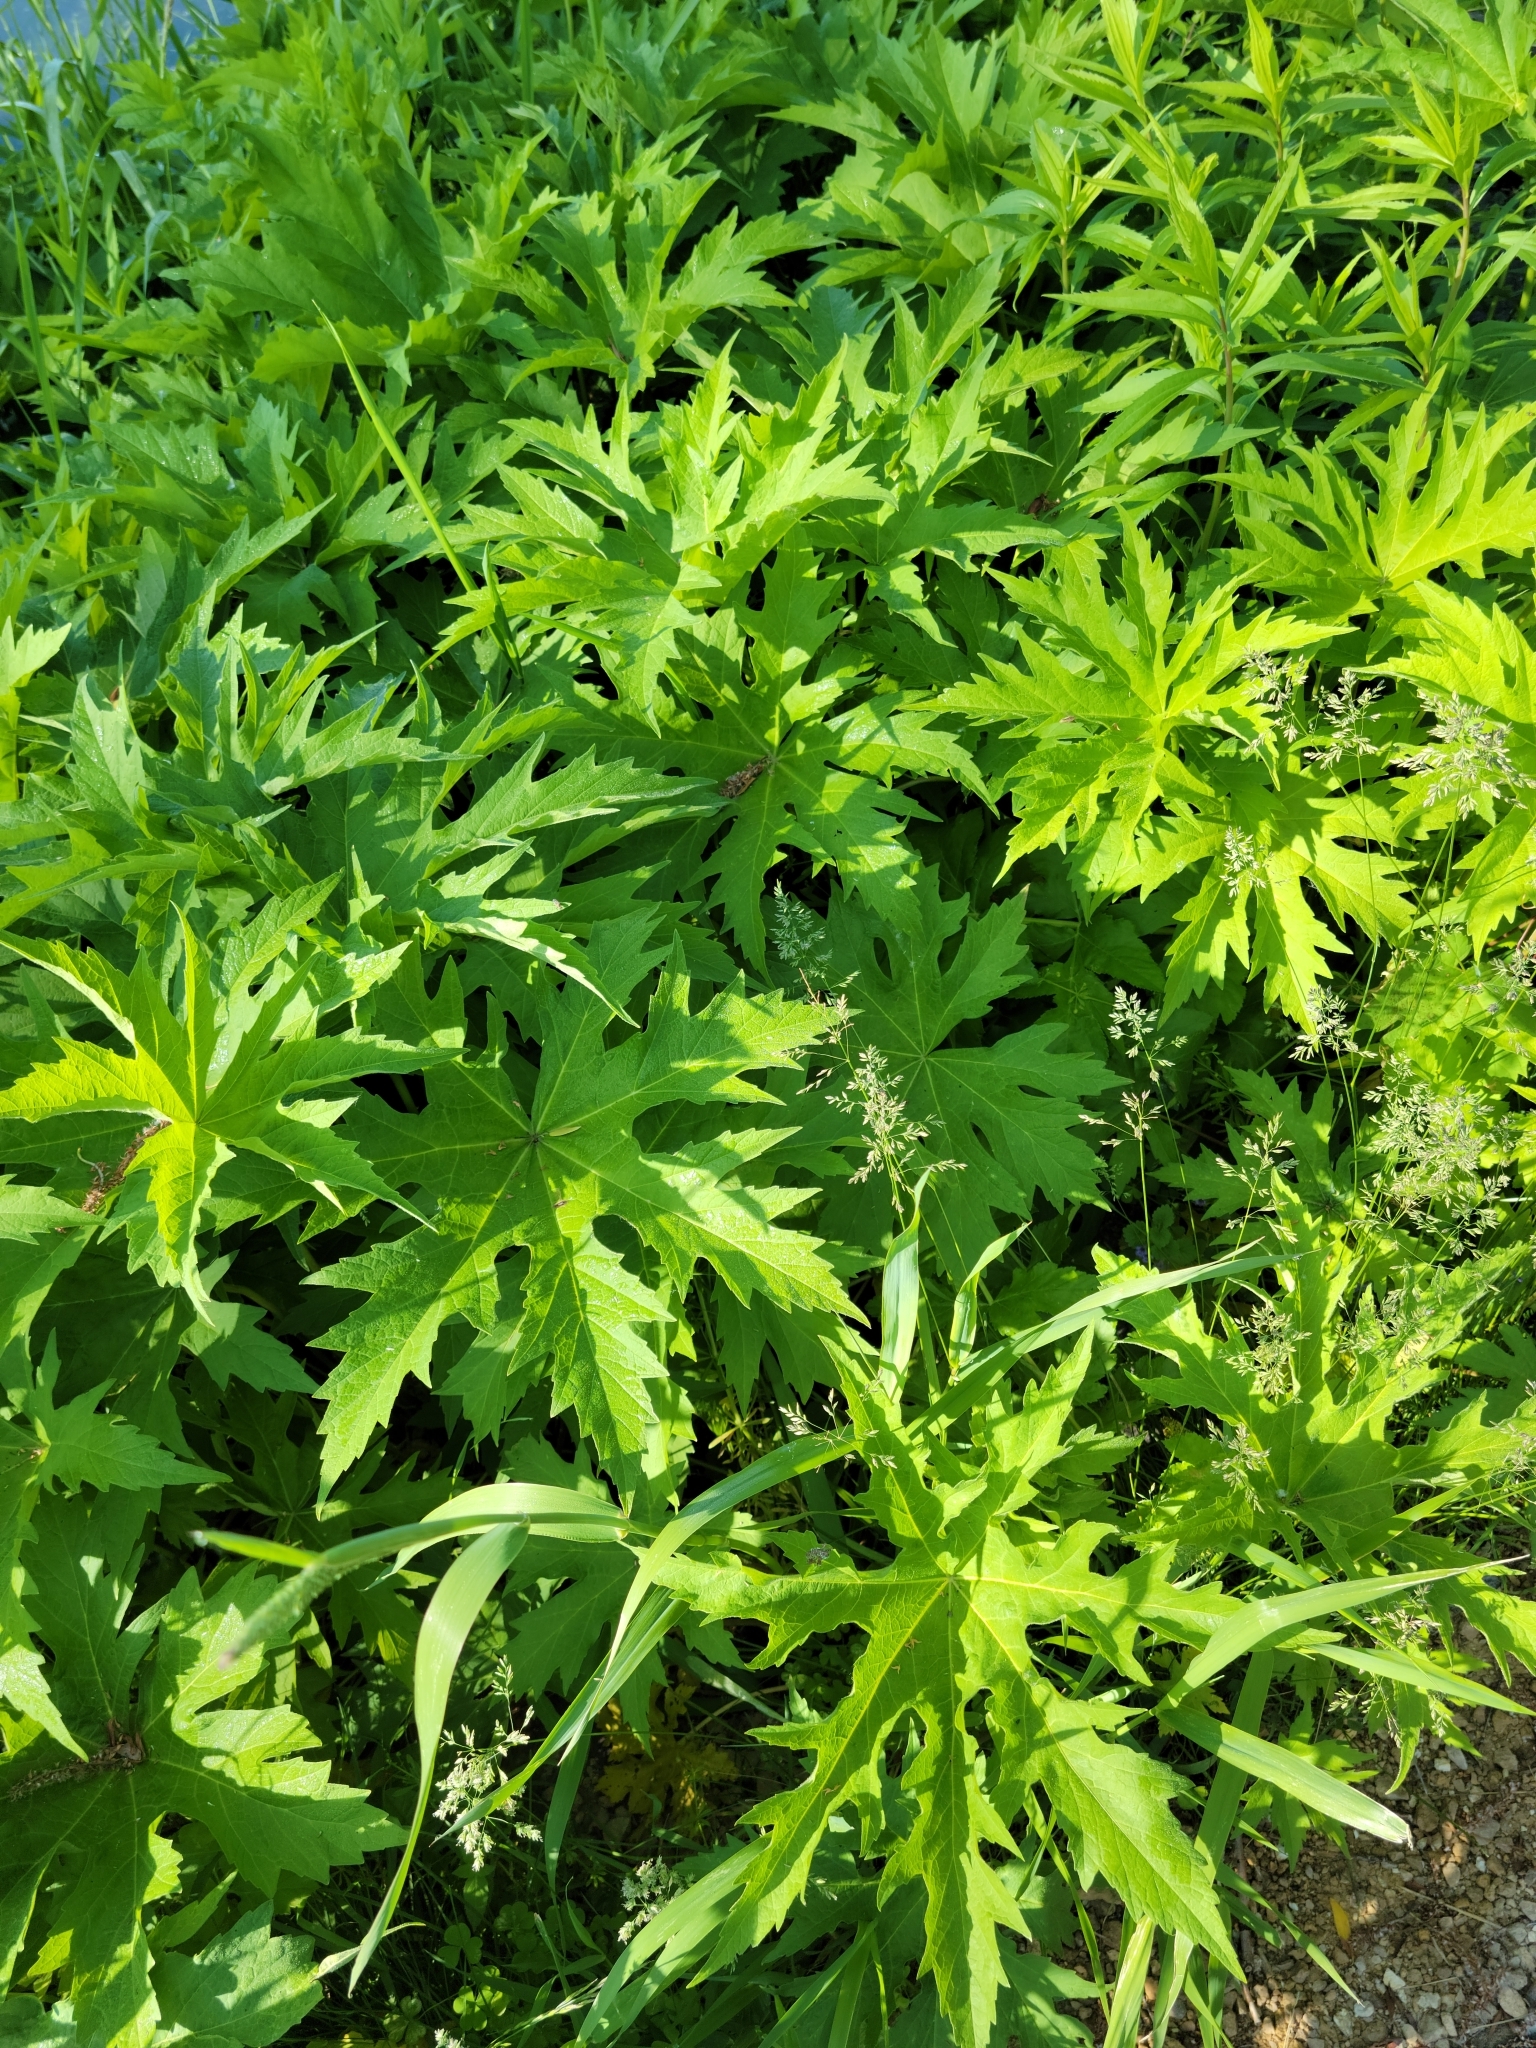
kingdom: Plantae
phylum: Tracheophyta
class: Magnoliopsida
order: Malvales
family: Malvaceae
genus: Napaea
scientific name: Napaea dioica
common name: Glade-mallow
